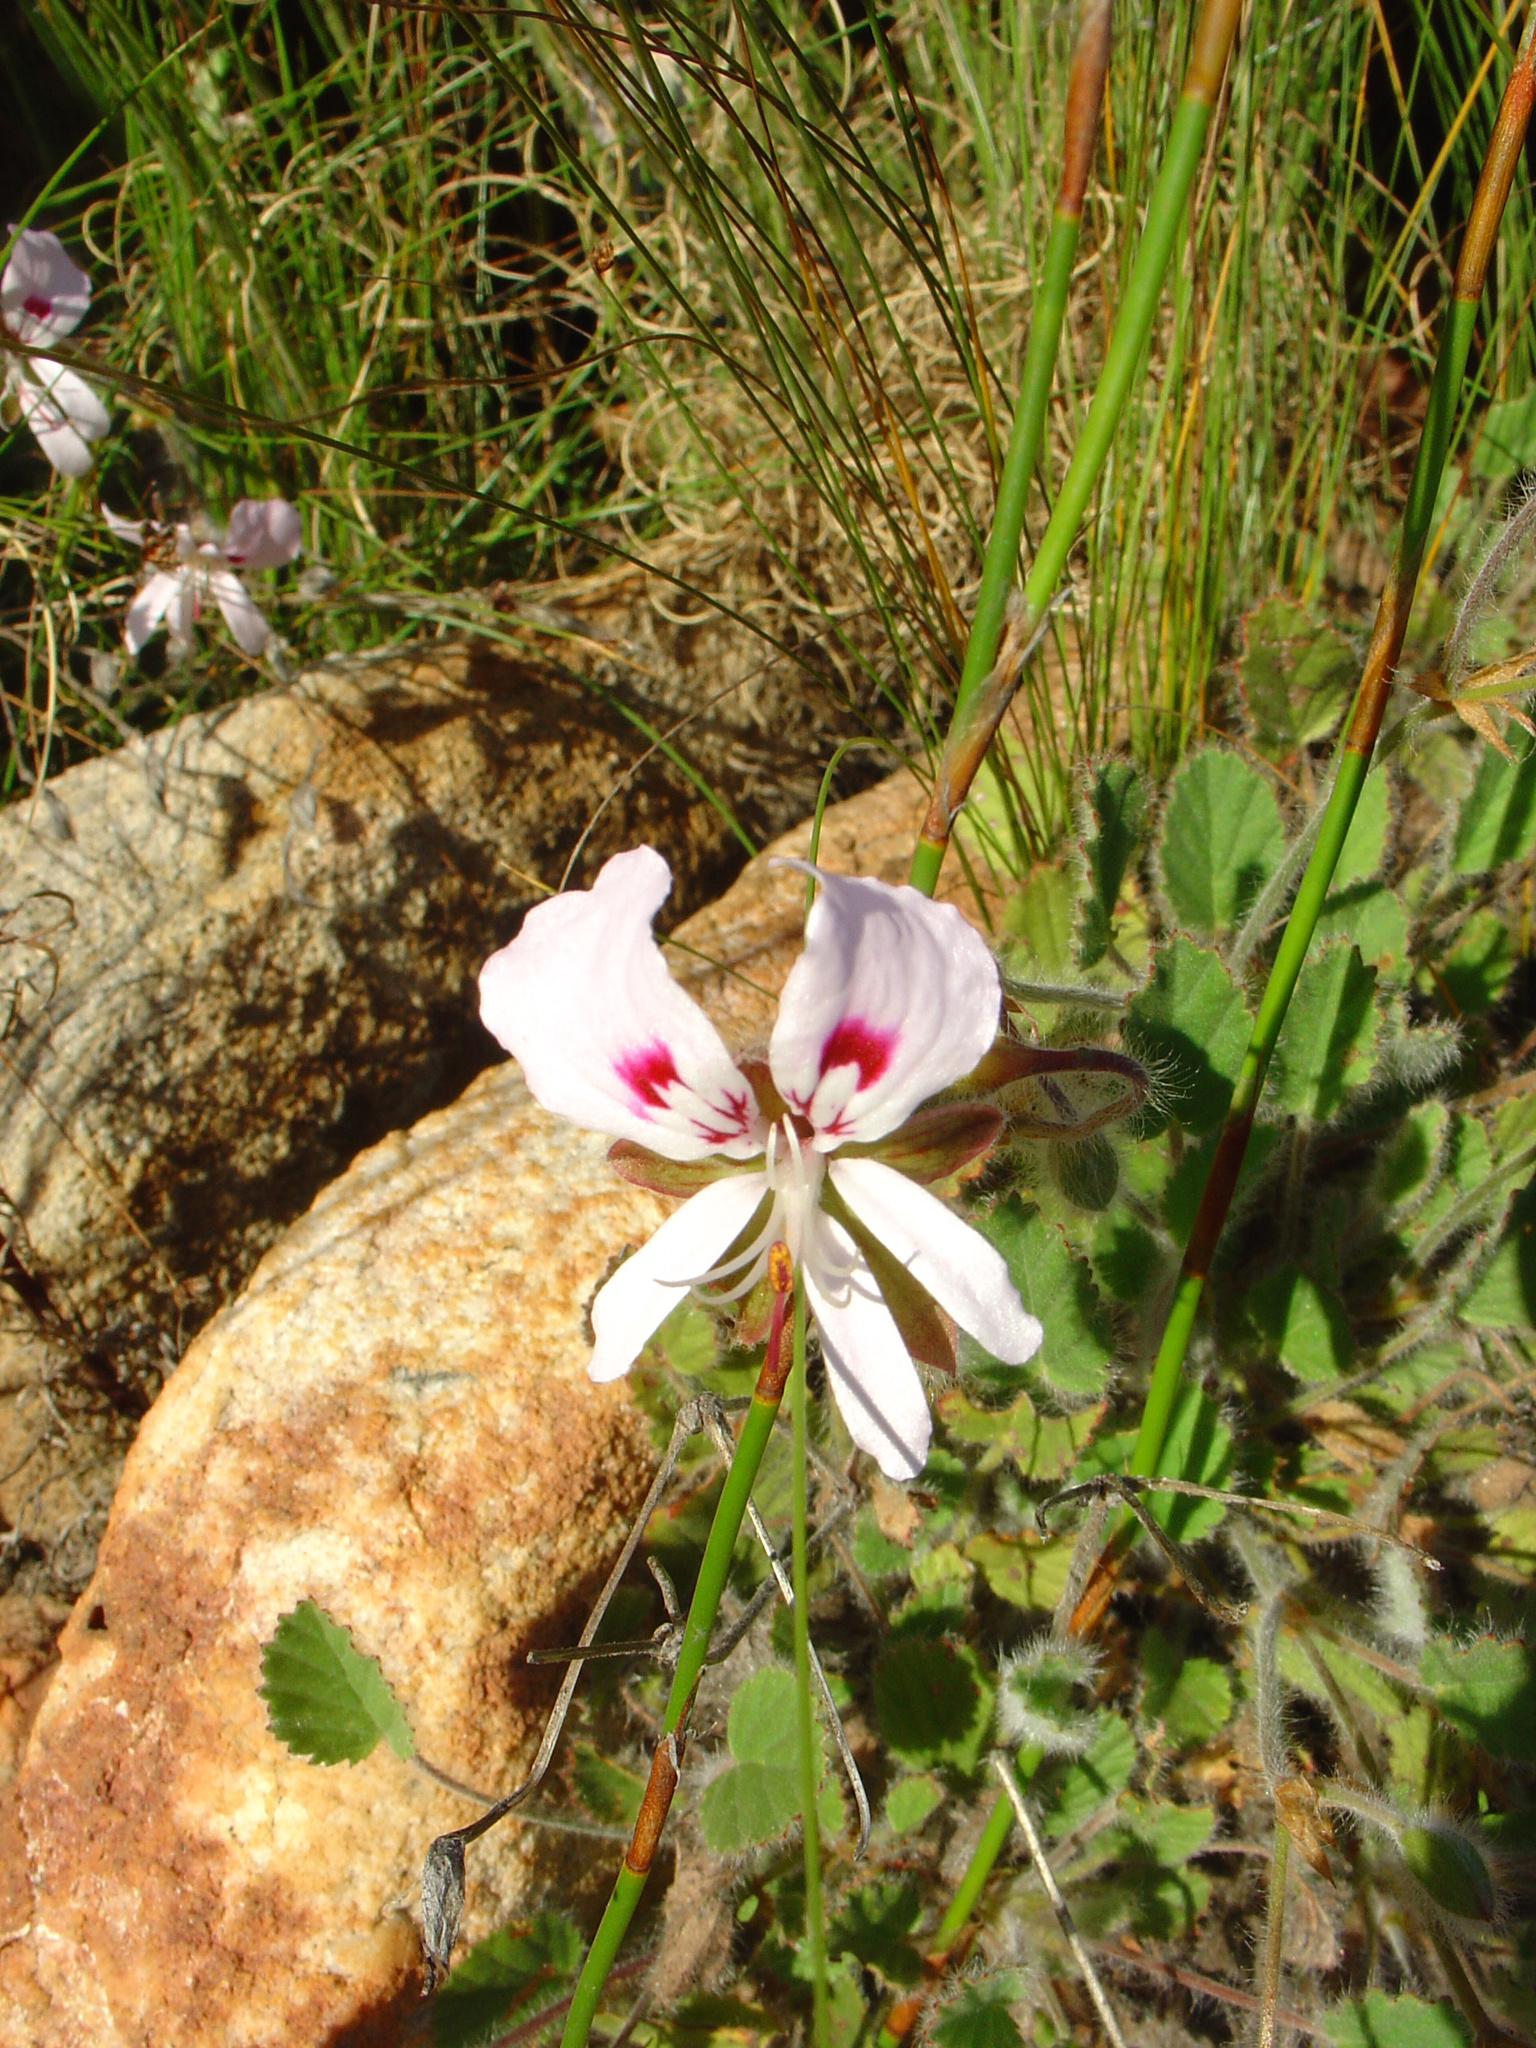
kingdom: Plantae
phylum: Tracheophyta
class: Magnoliopsida
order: Geraniales
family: Geraniaceae
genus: Pelargonium
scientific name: Pelargonium ovale
